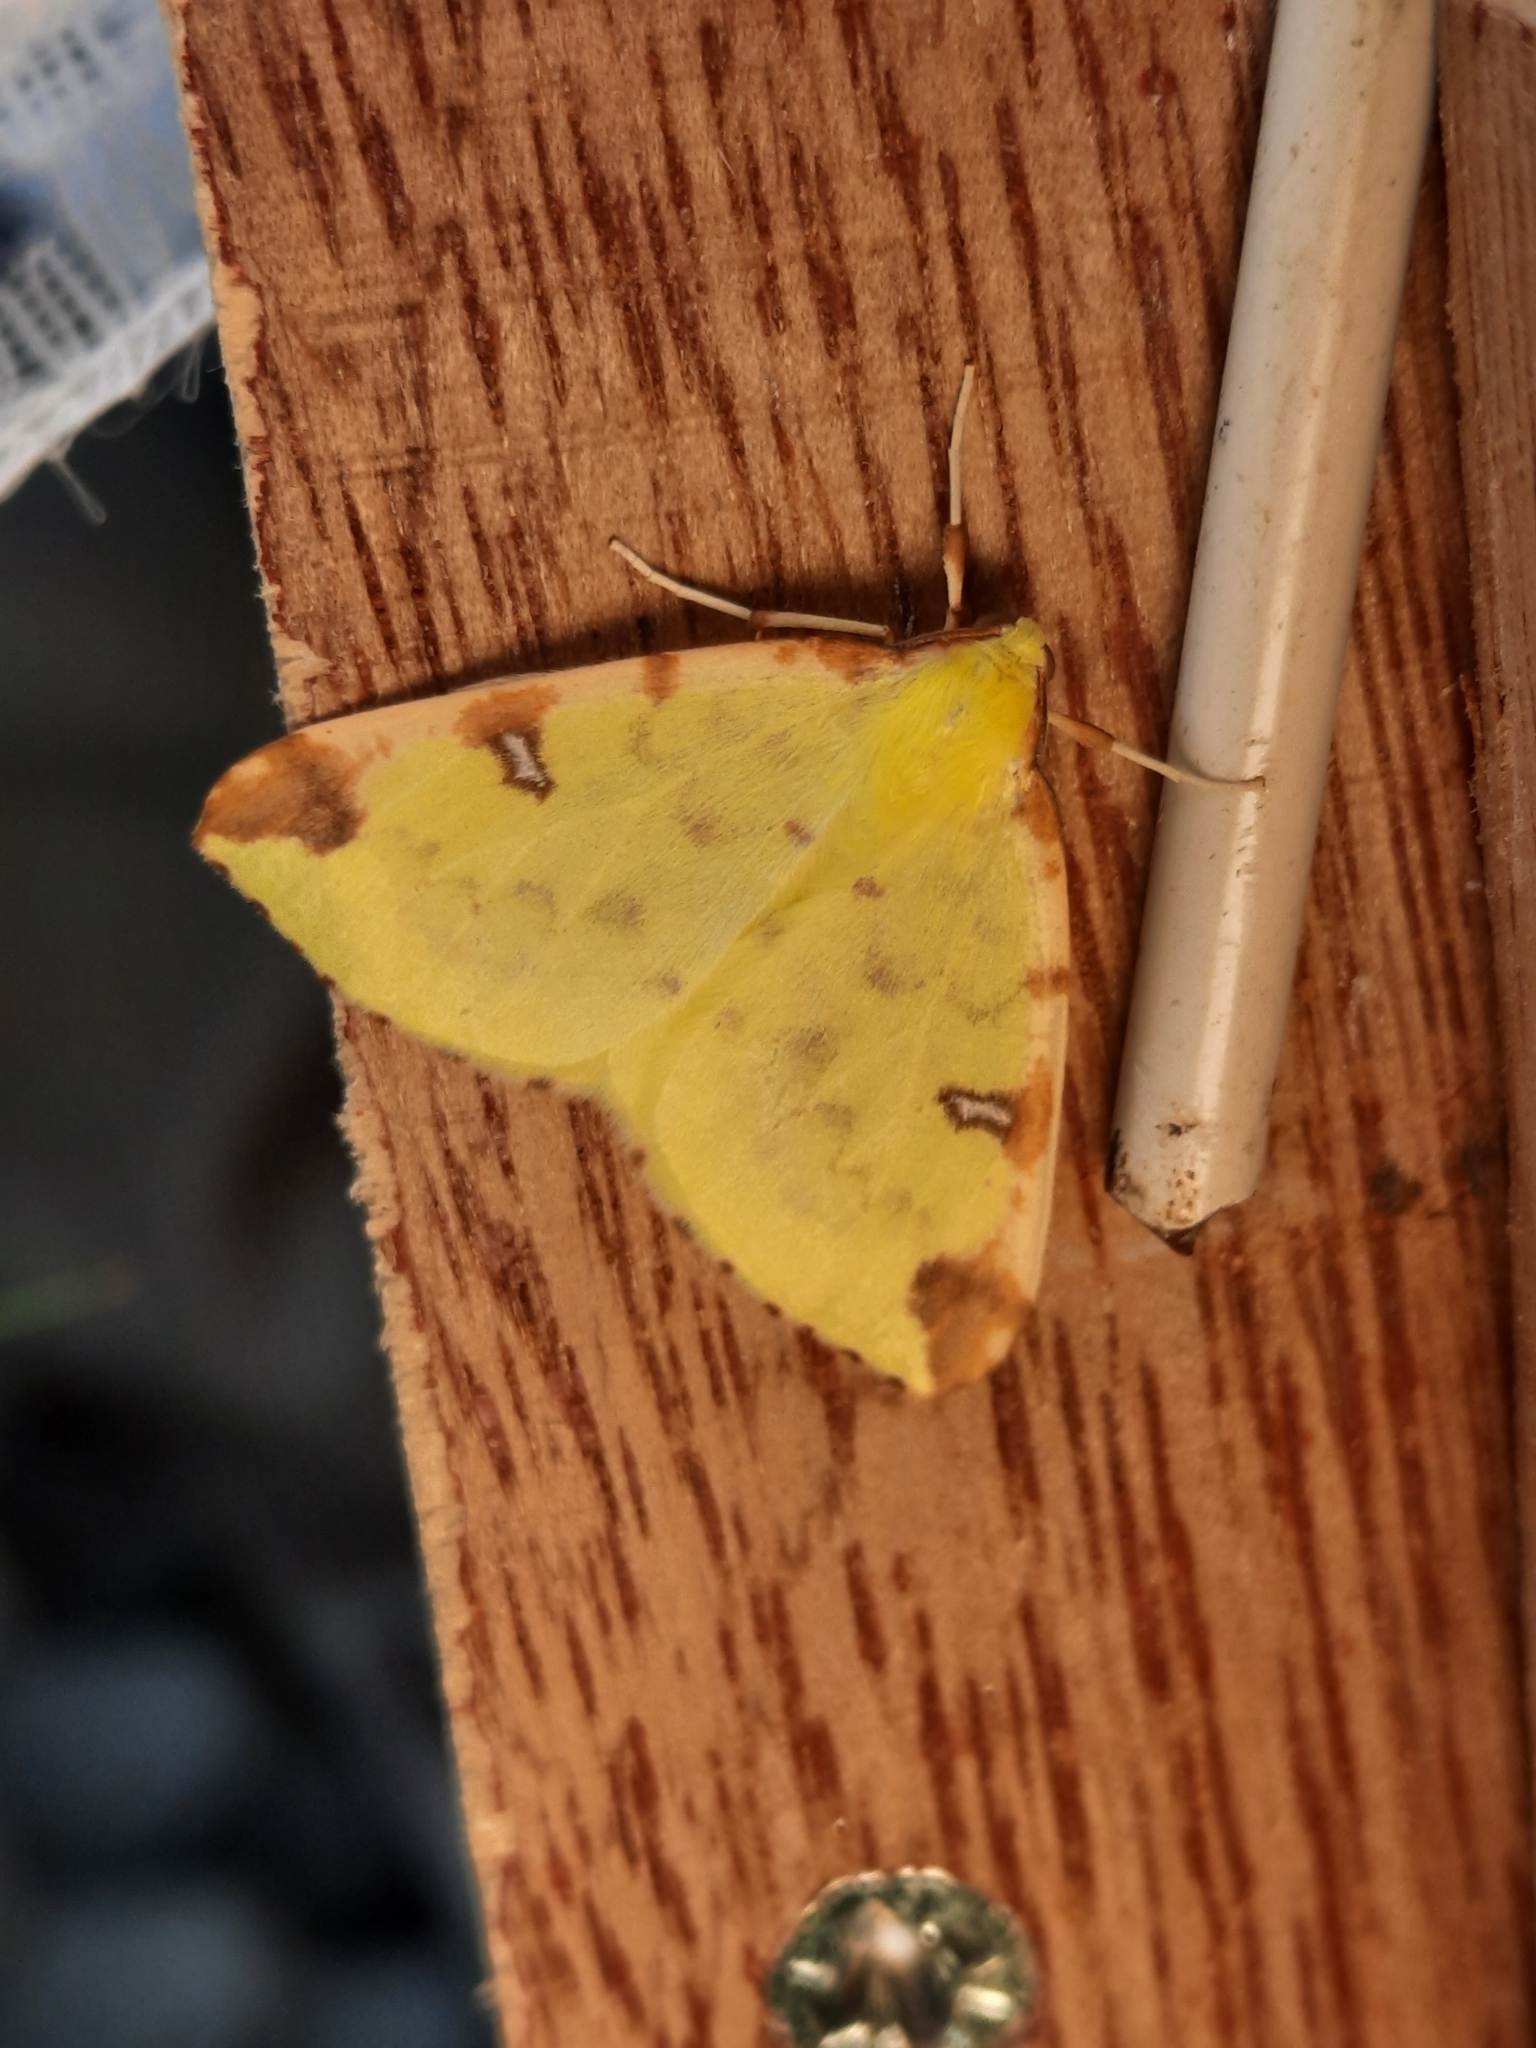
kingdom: Animalia
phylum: Arthropoda
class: Insecta
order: Lepidoptera
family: Geometridae
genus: Opisthograptis
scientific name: Opisthograptis luteolata
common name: Brimstone moth
